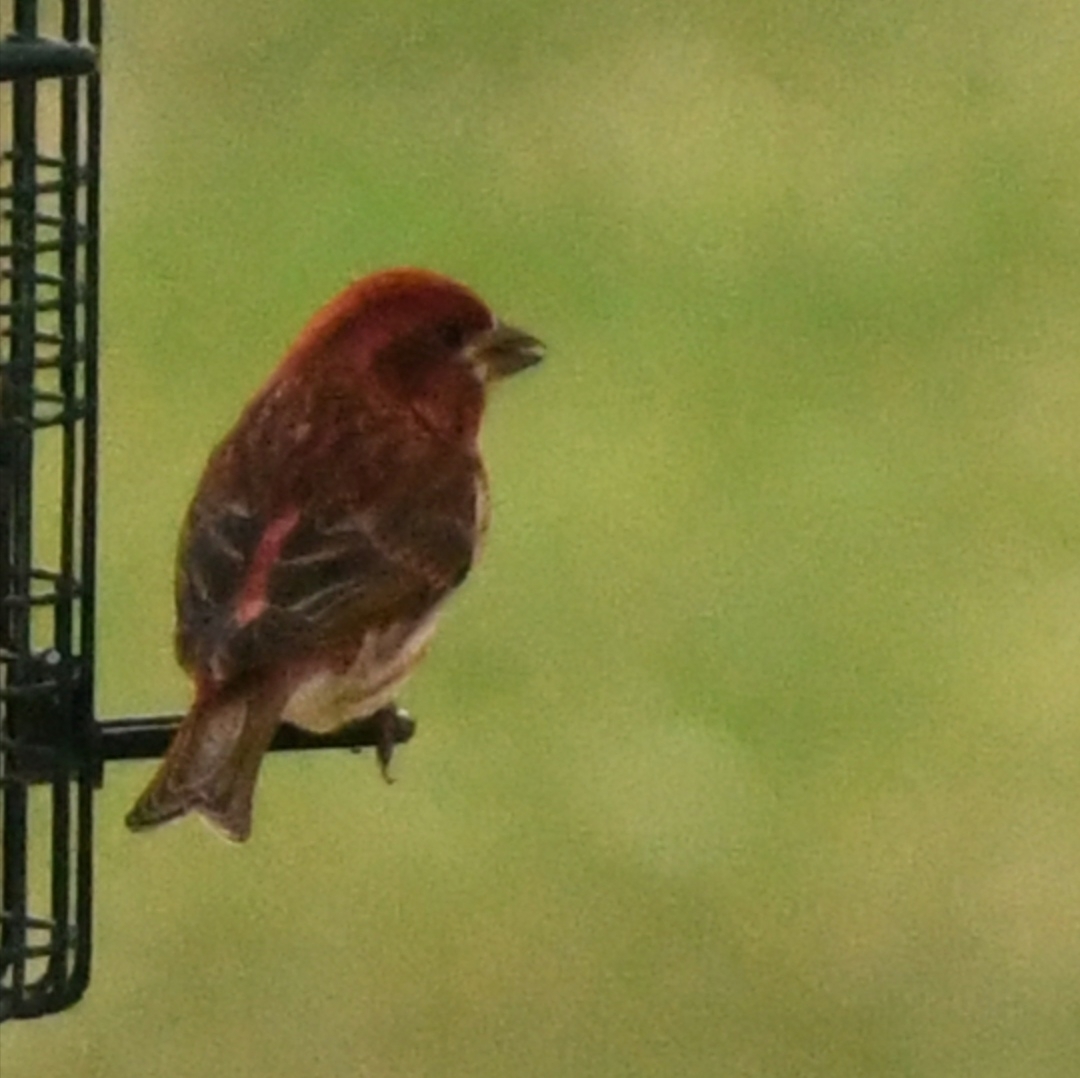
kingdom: Animalia
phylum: Chordata
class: Aves
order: Passeriformes
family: Fringillidae
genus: Haemorhous
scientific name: Haemorhous purpureus
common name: Purple finch
